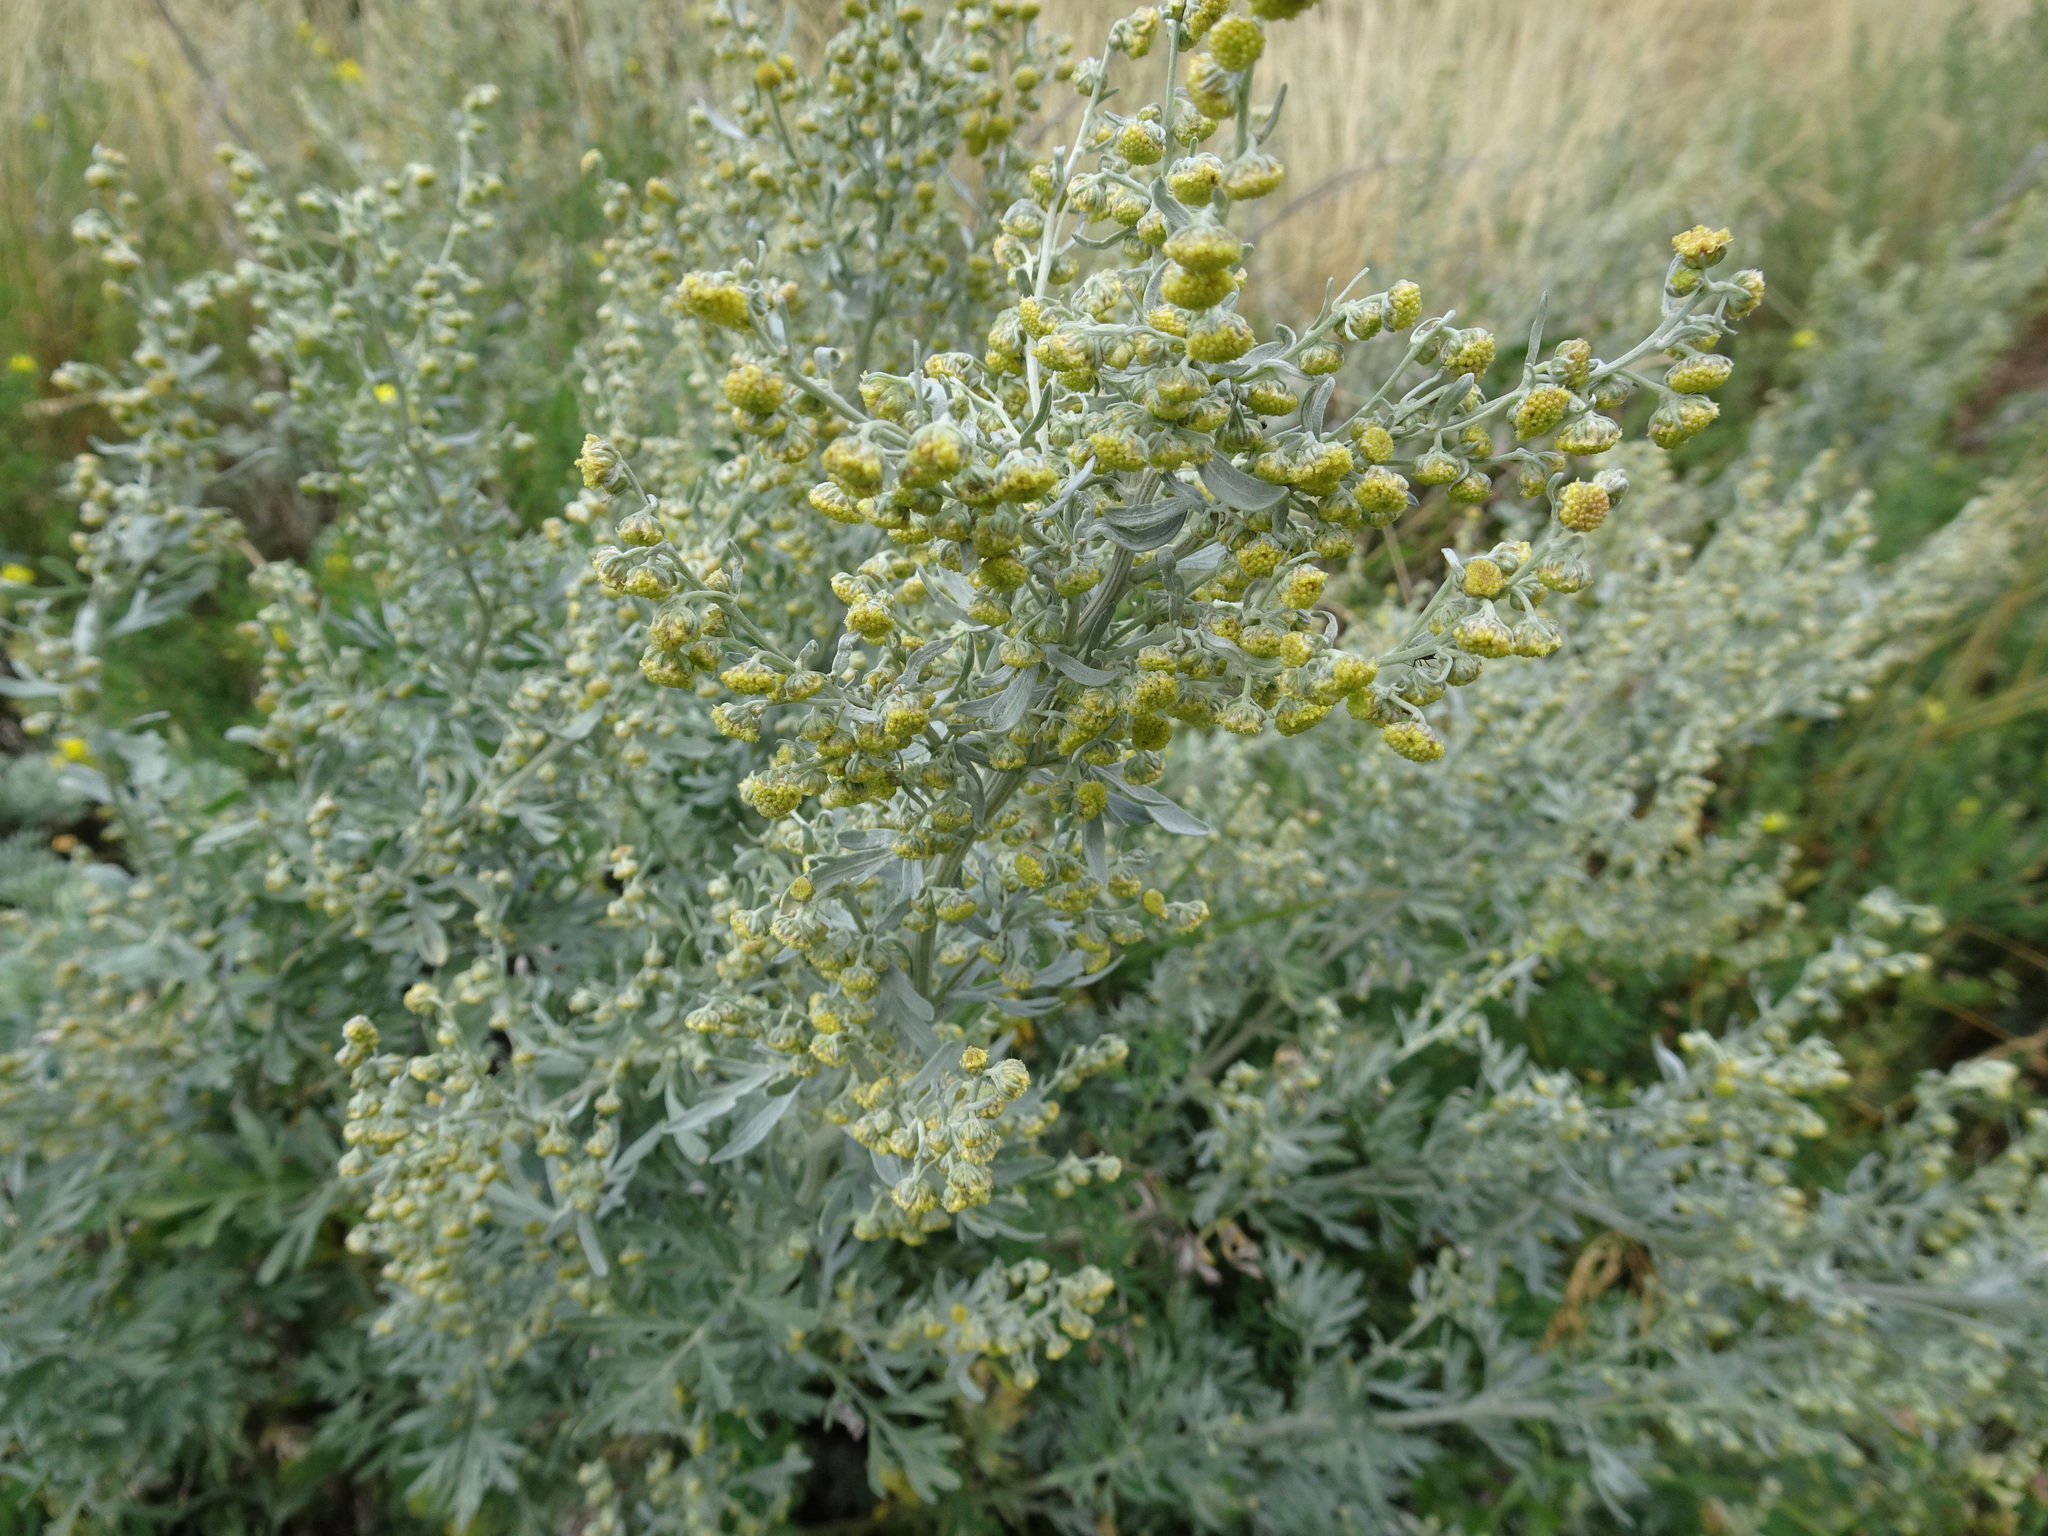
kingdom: Plantae
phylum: Tracheophyta
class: Magnoliopsida
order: Asterales
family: Asteraceae
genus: Artemisia
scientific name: Artemisia absinthium
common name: Wormwood
